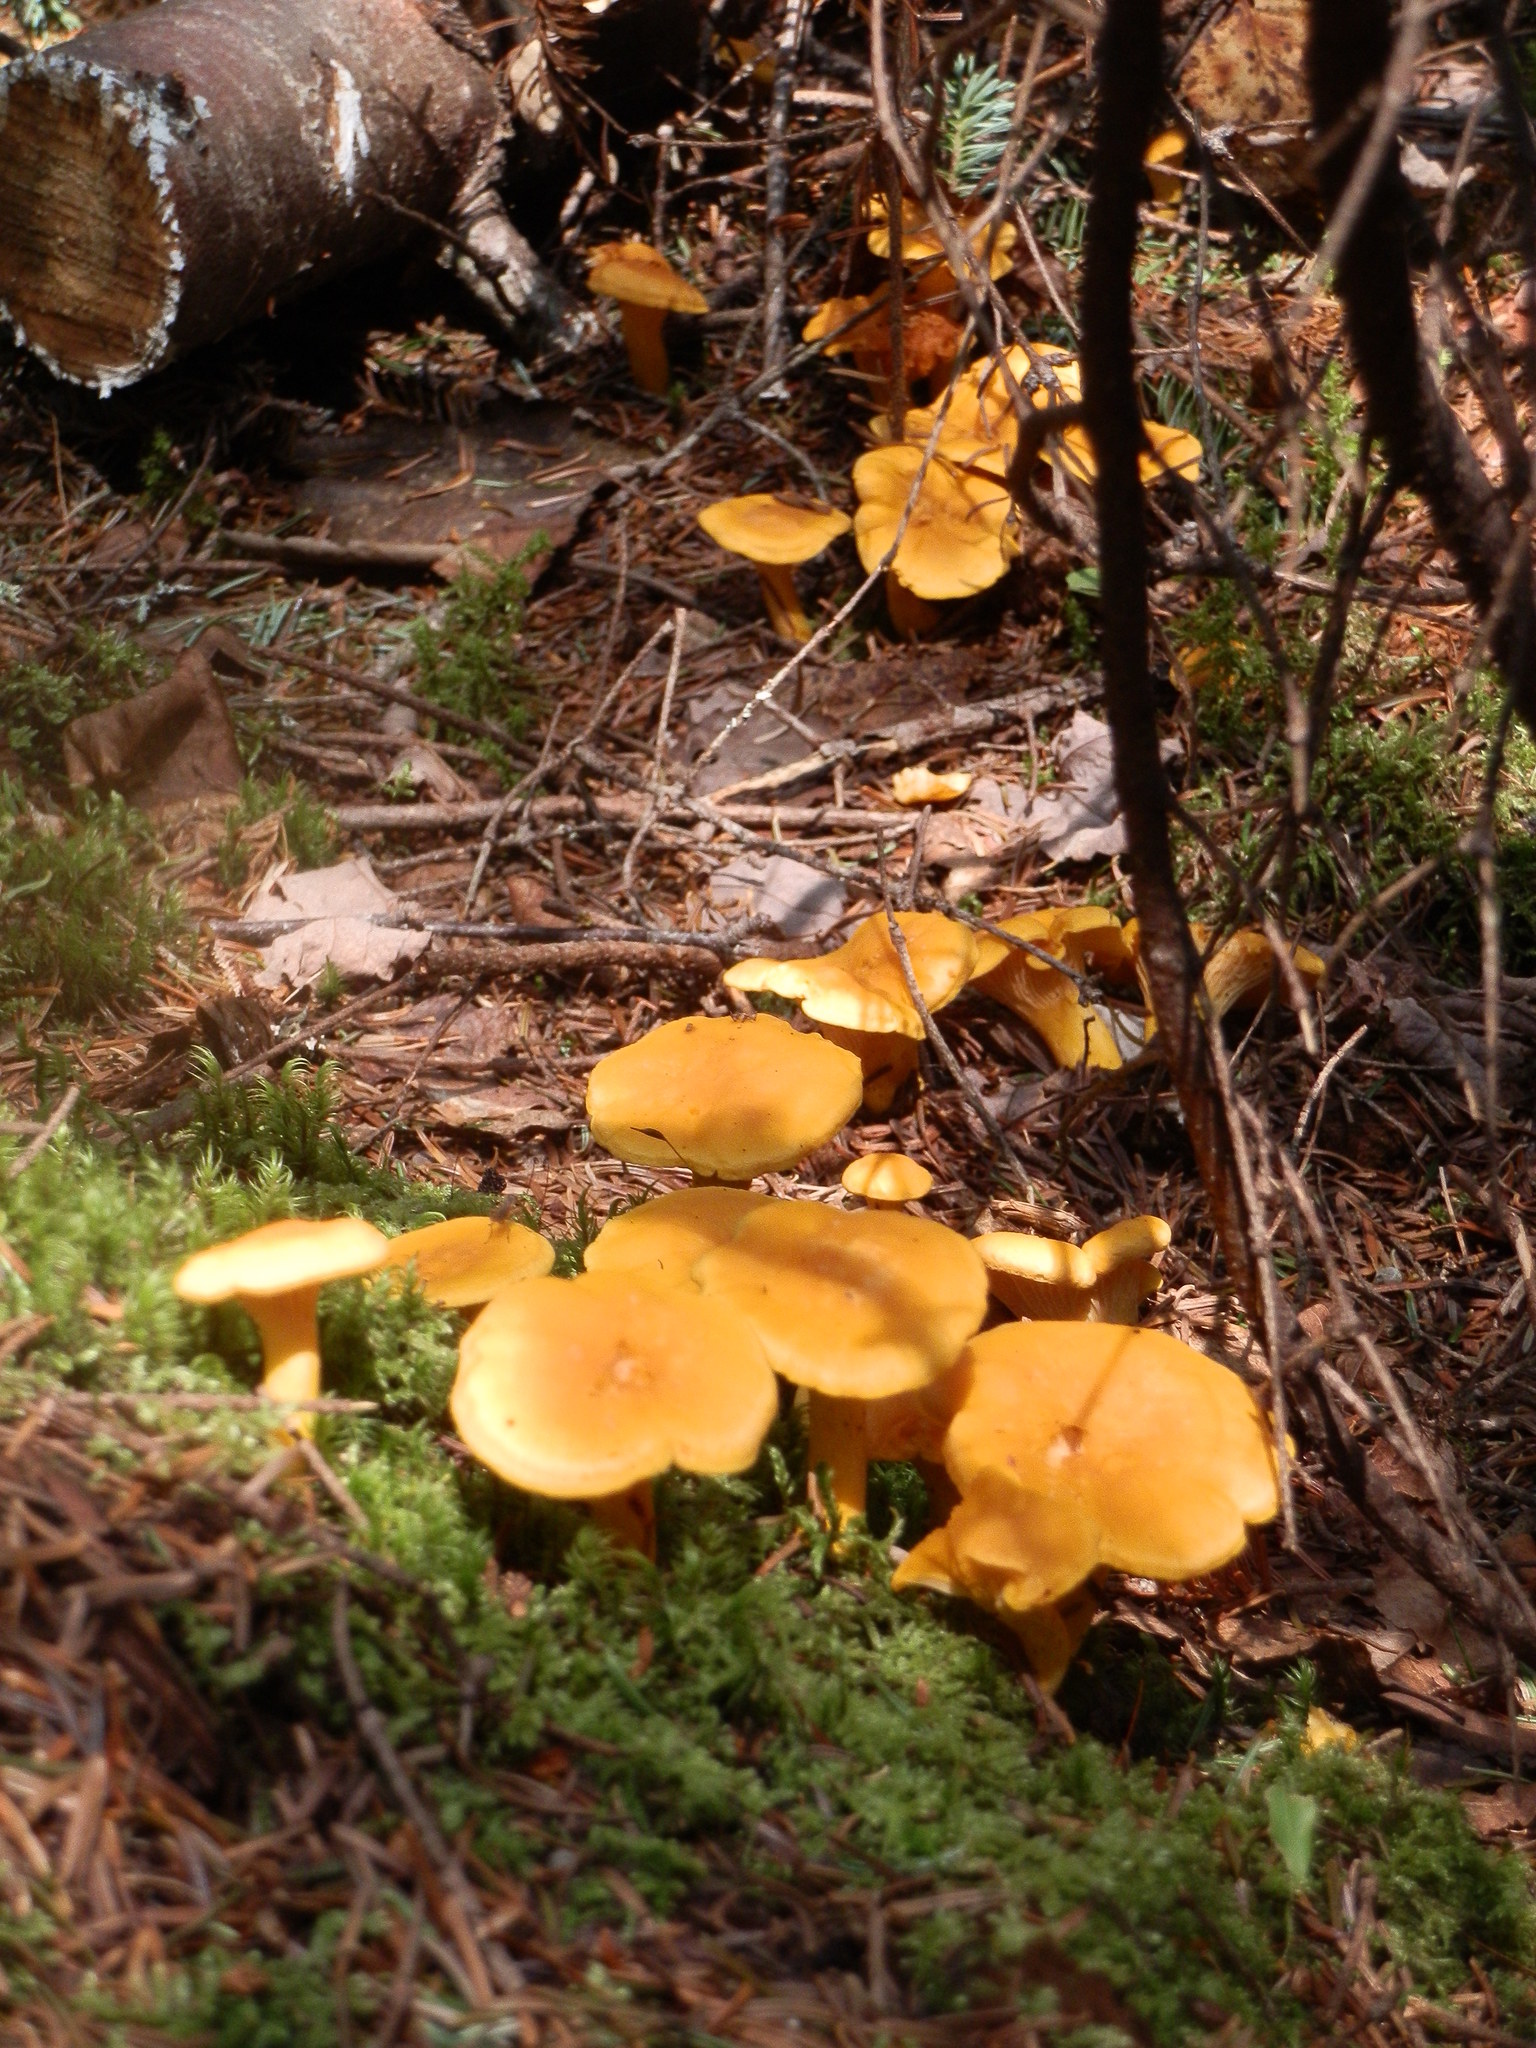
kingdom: Fungi
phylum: Basidiomycota
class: Agaricomycetes
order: Cantharellales
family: Hydnaceae
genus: Cantharellus
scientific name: Cantharellus enelensis
